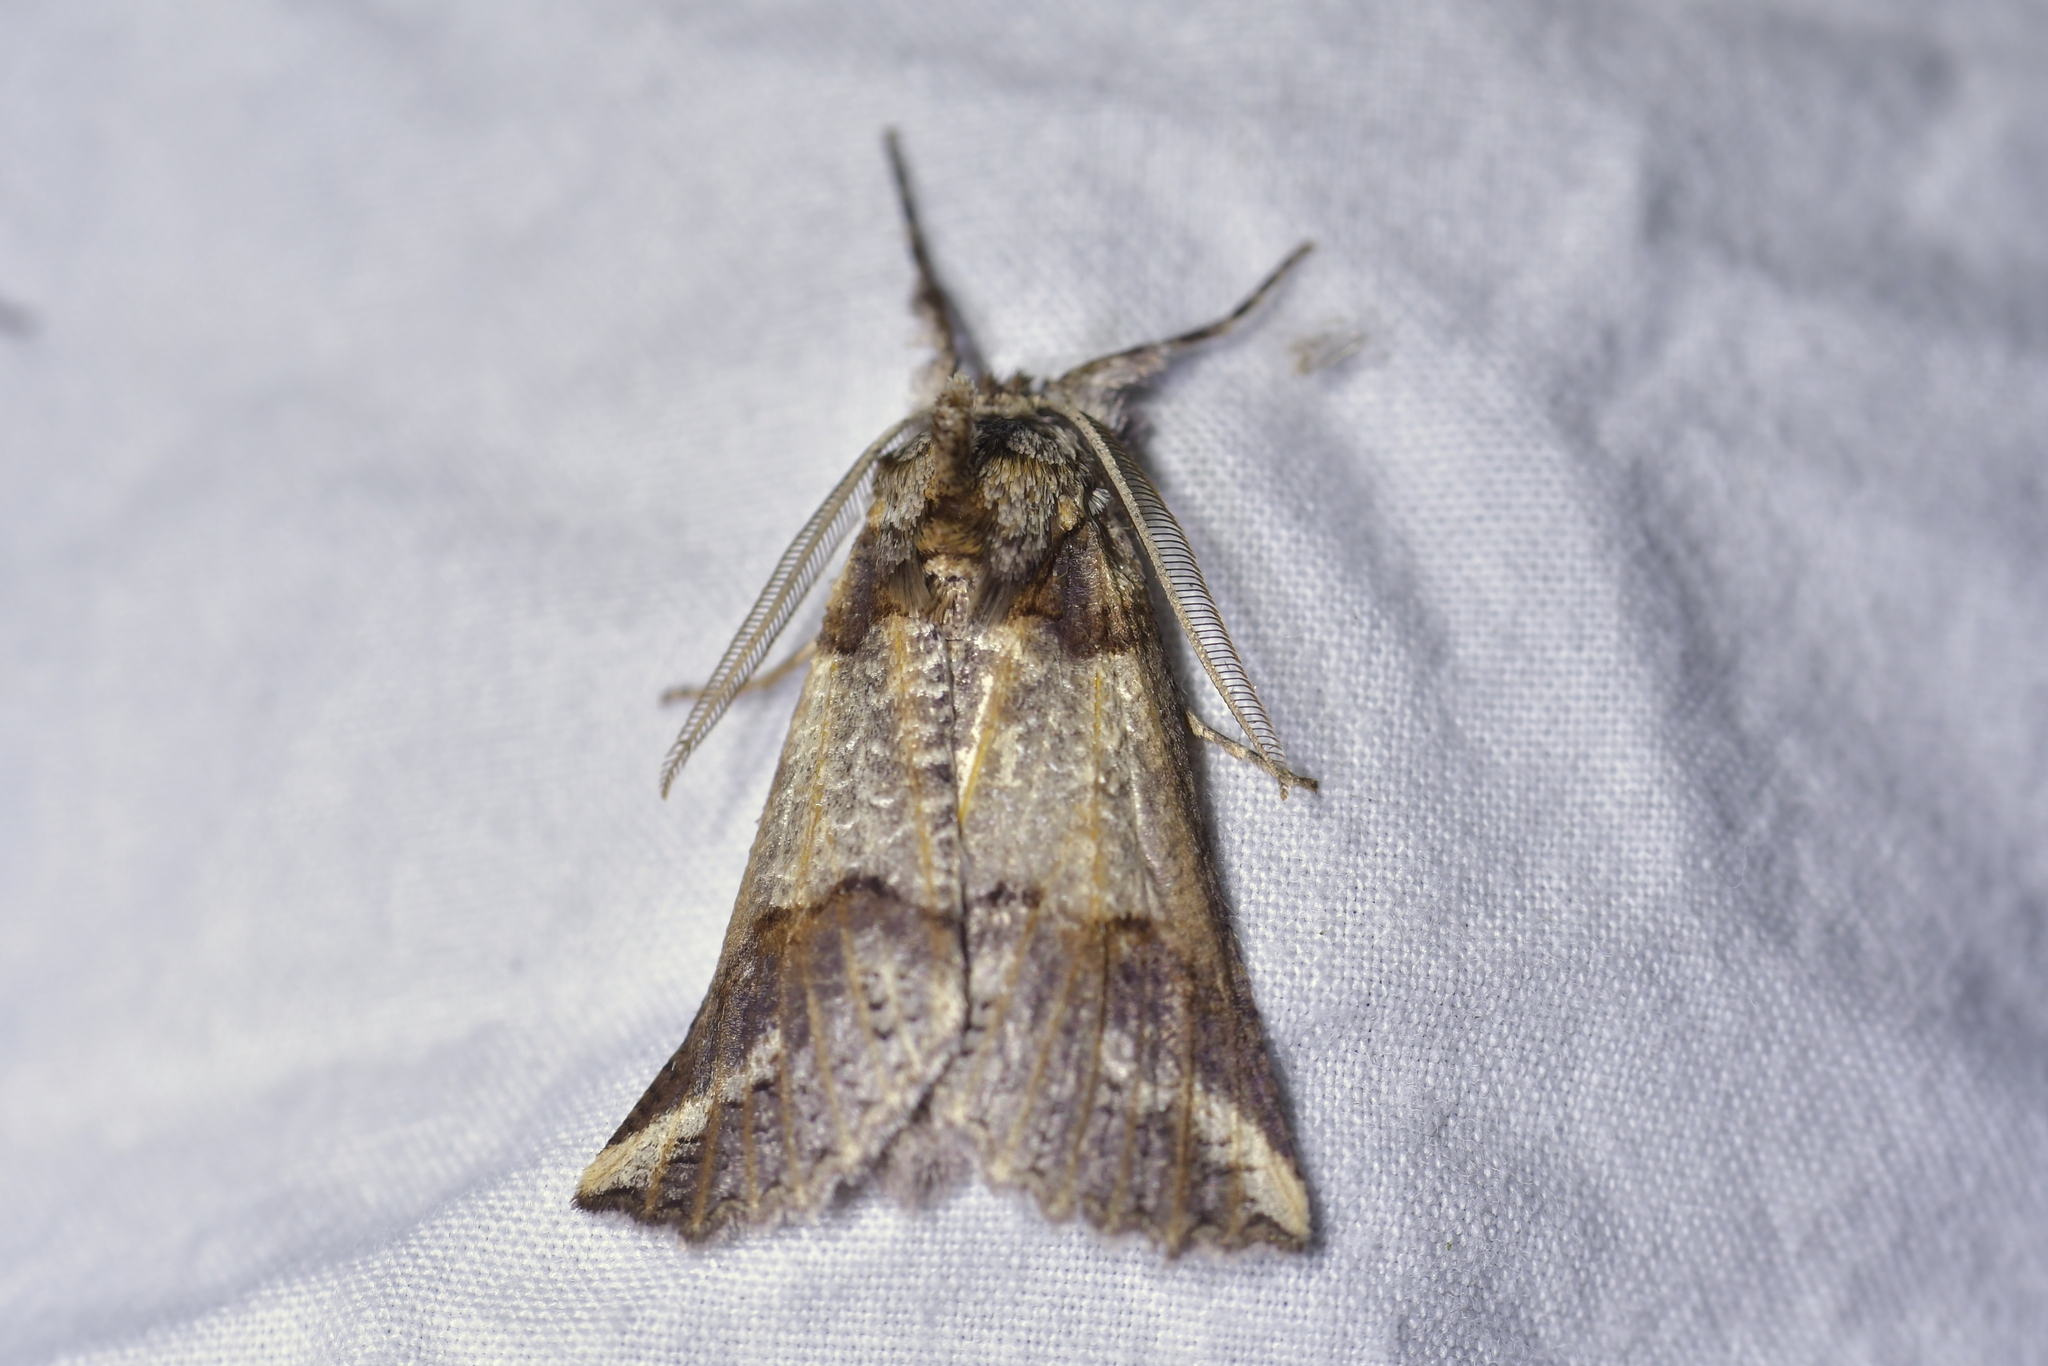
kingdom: Animalia
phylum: Arthropoda
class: Insecta
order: Lepidoptera
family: Geometridae
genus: Declana
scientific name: Declana
